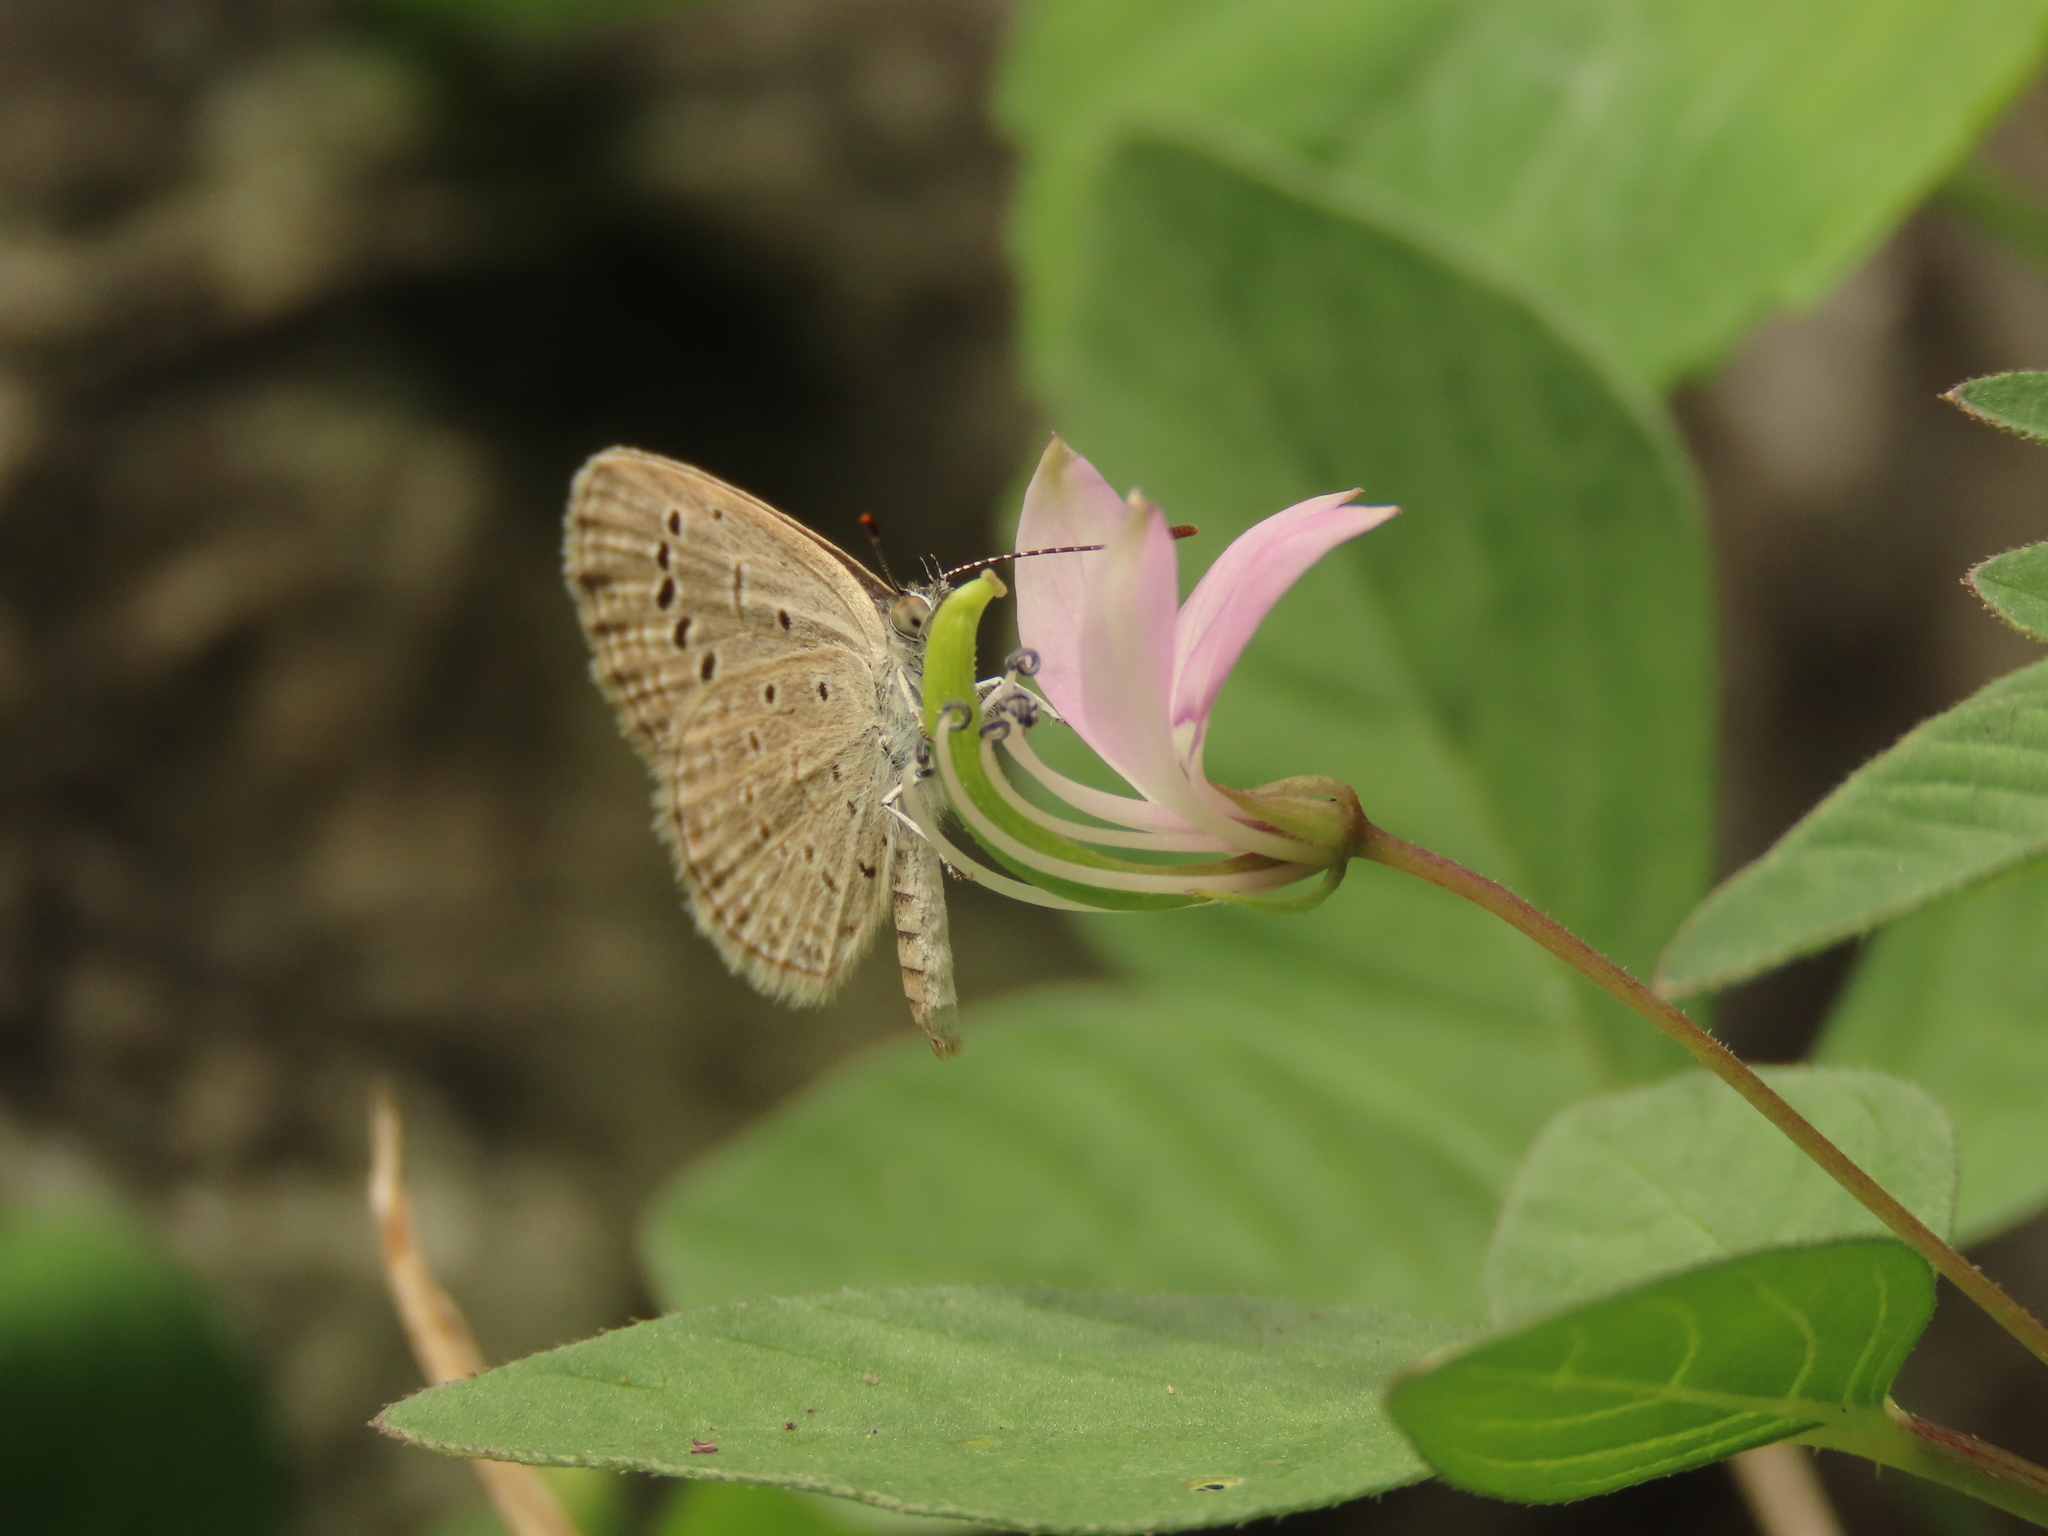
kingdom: Animalia
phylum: Arthropoda
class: Insecta
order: Lepidoptera
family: Lycaenidae
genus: Zizula
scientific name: Zizula hylax
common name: Gaika blue
